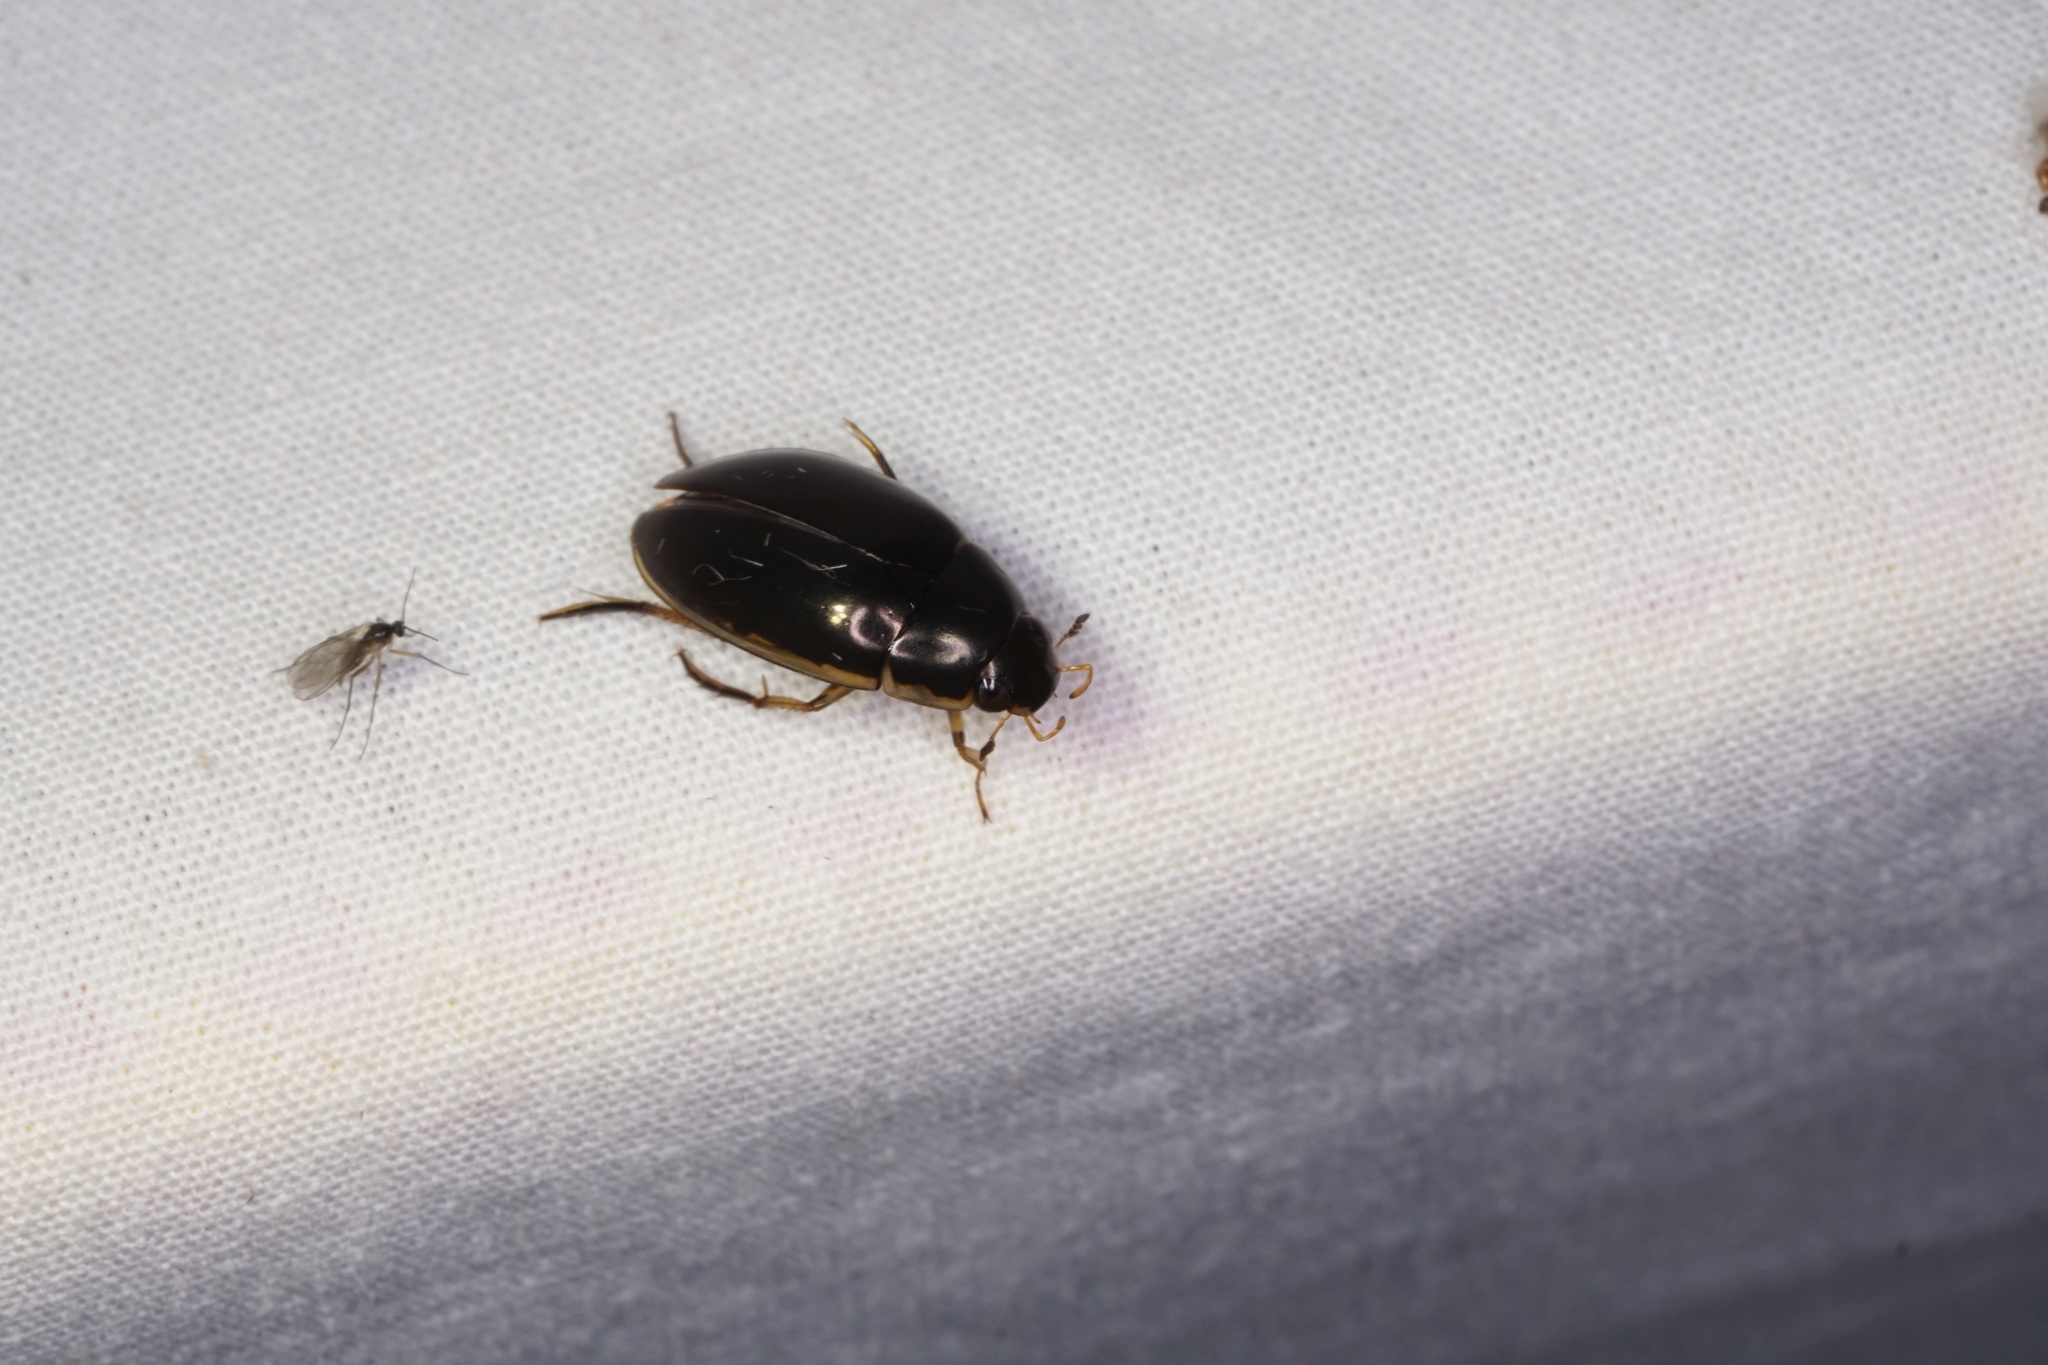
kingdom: Animalia
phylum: Arthropoda
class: Insecta
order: Coleoptera
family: Hydrophilidae
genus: Tropisternus
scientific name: Tropisternus lateralis
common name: Lateral-banded water scavenger beetle
